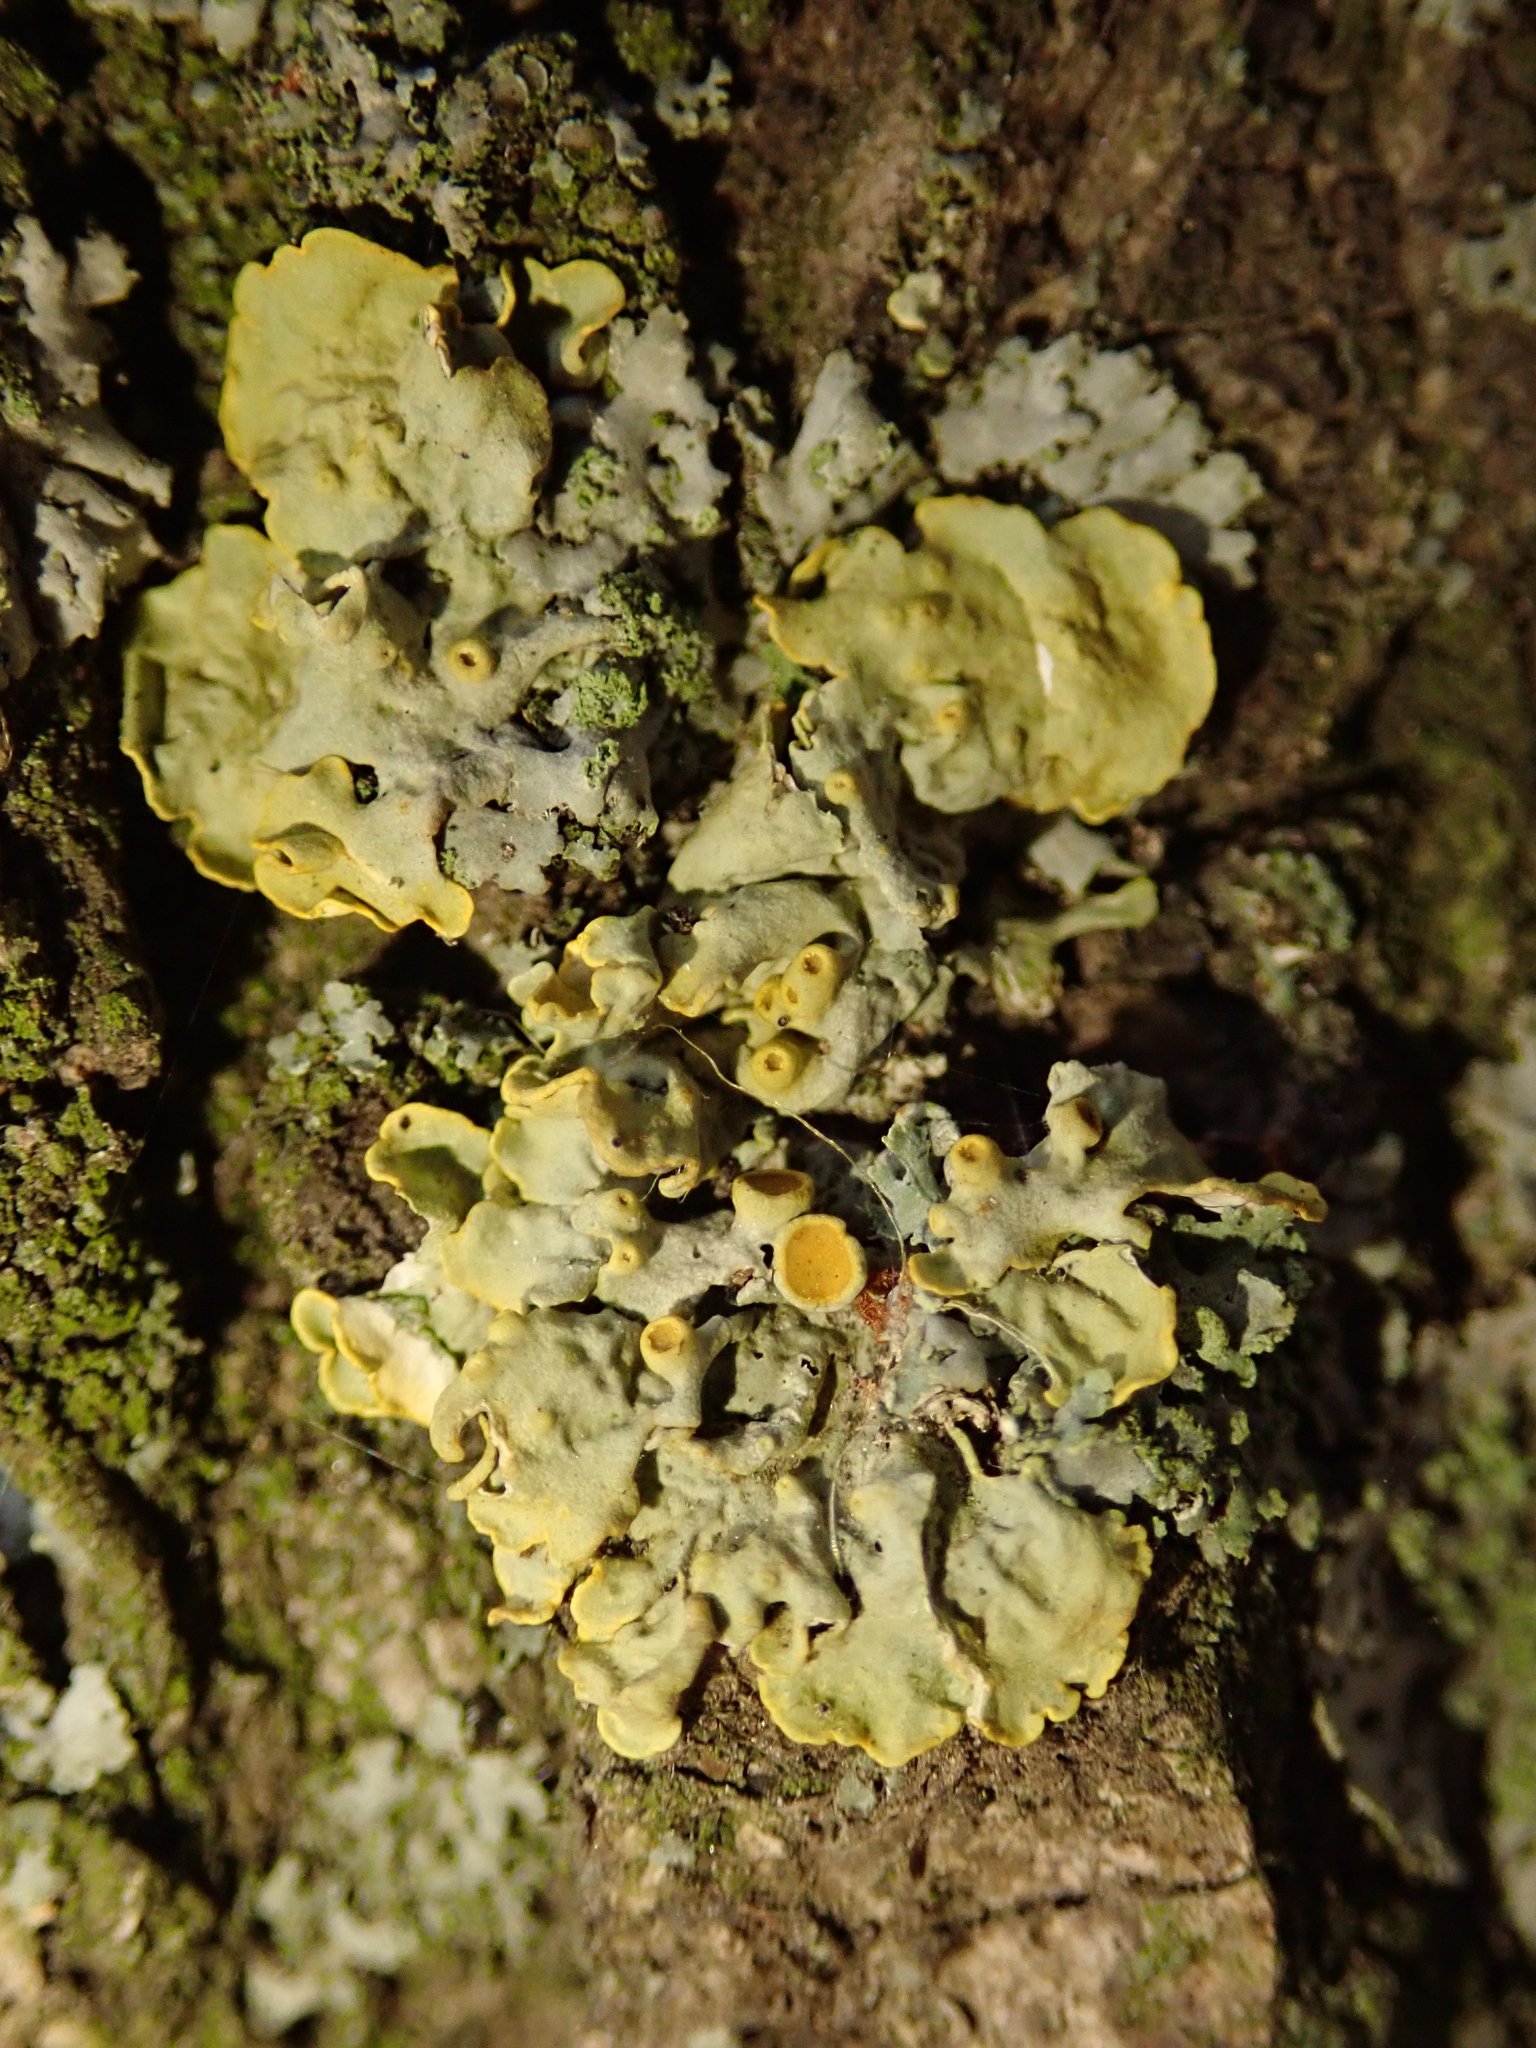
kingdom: Fungi
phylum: Ascomycota
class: Lecanoromycetes
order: Teloschistales
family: Teloschistaceae
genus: Xanthoria
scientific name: Xanthoria parietina
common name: Common orange lichen
